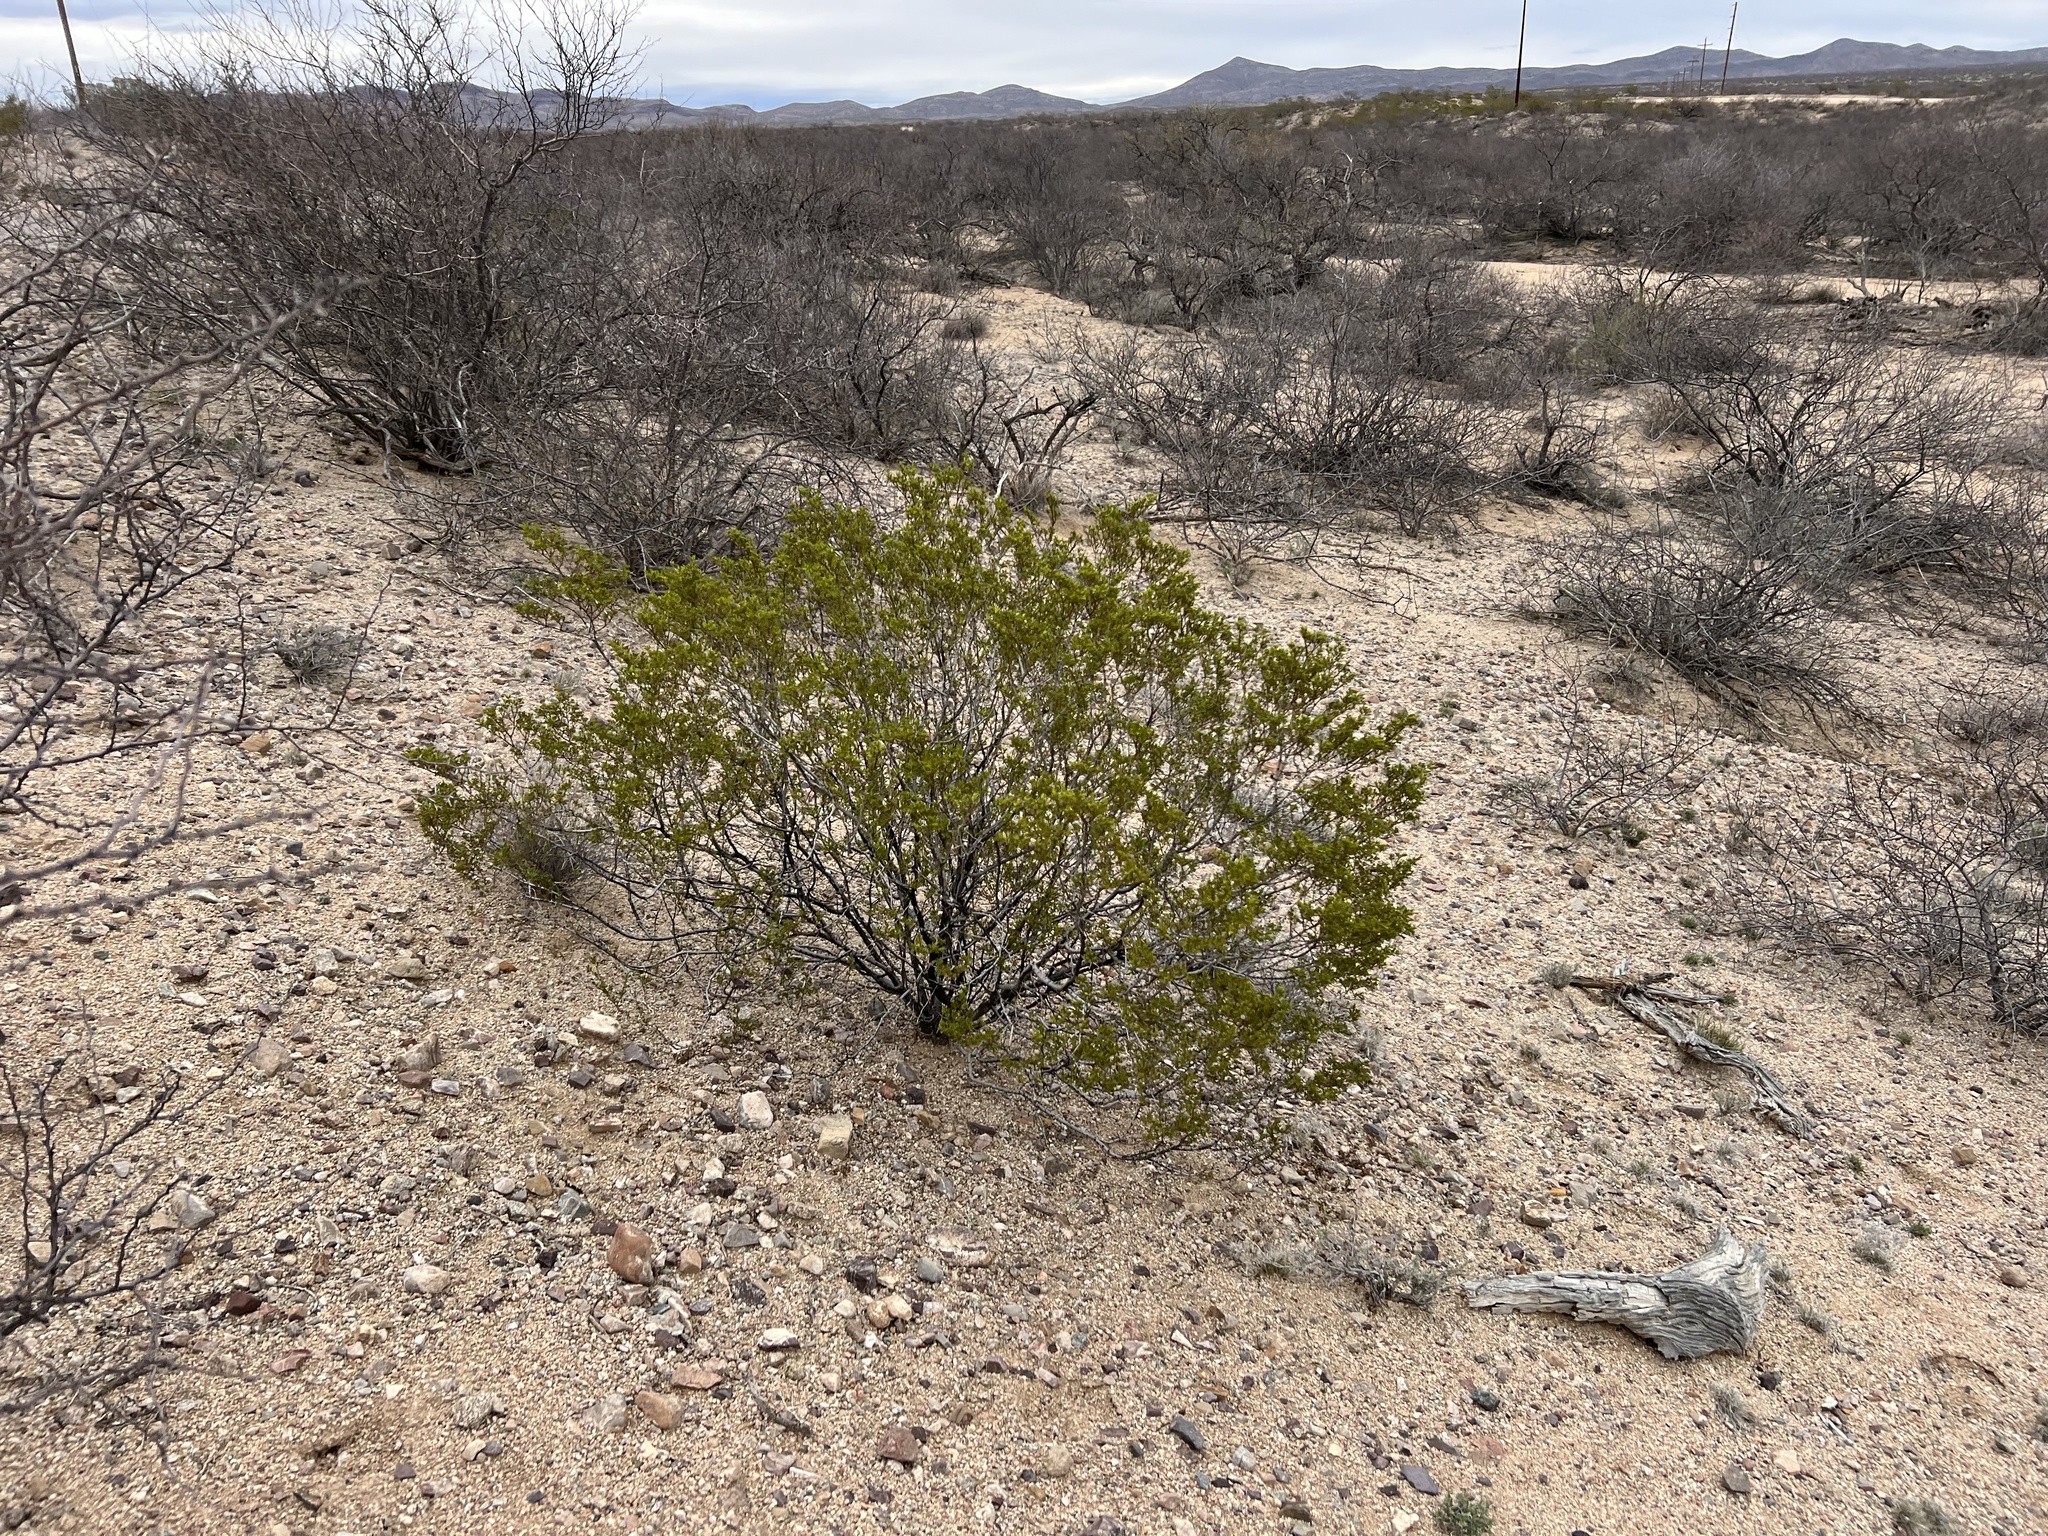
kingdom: Plantae
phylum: Tracheophyta
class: Magnoliopsida
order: Zygophyllales
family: Zygophyllaceae
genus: Larrea
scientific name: Larrea tridentata
